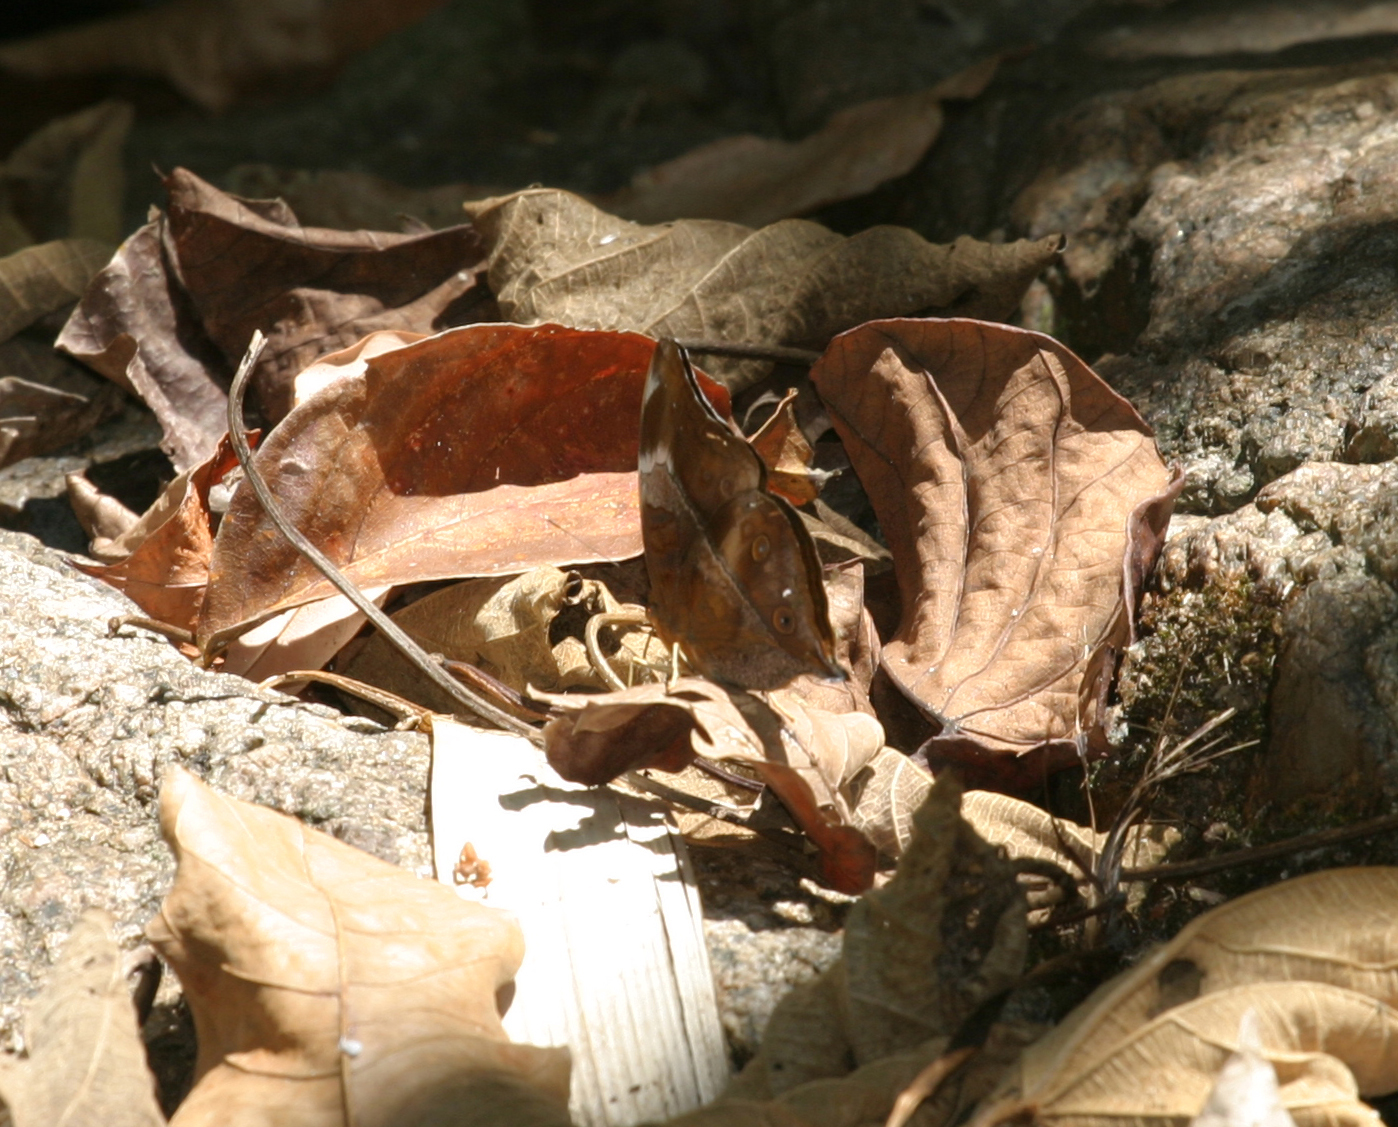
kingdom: Animalia
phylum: Arthropoda
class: Insecta
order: Lepidoptera
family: Nymphalidae
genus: Doleschallia
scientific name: Doleschallia bisaltide
